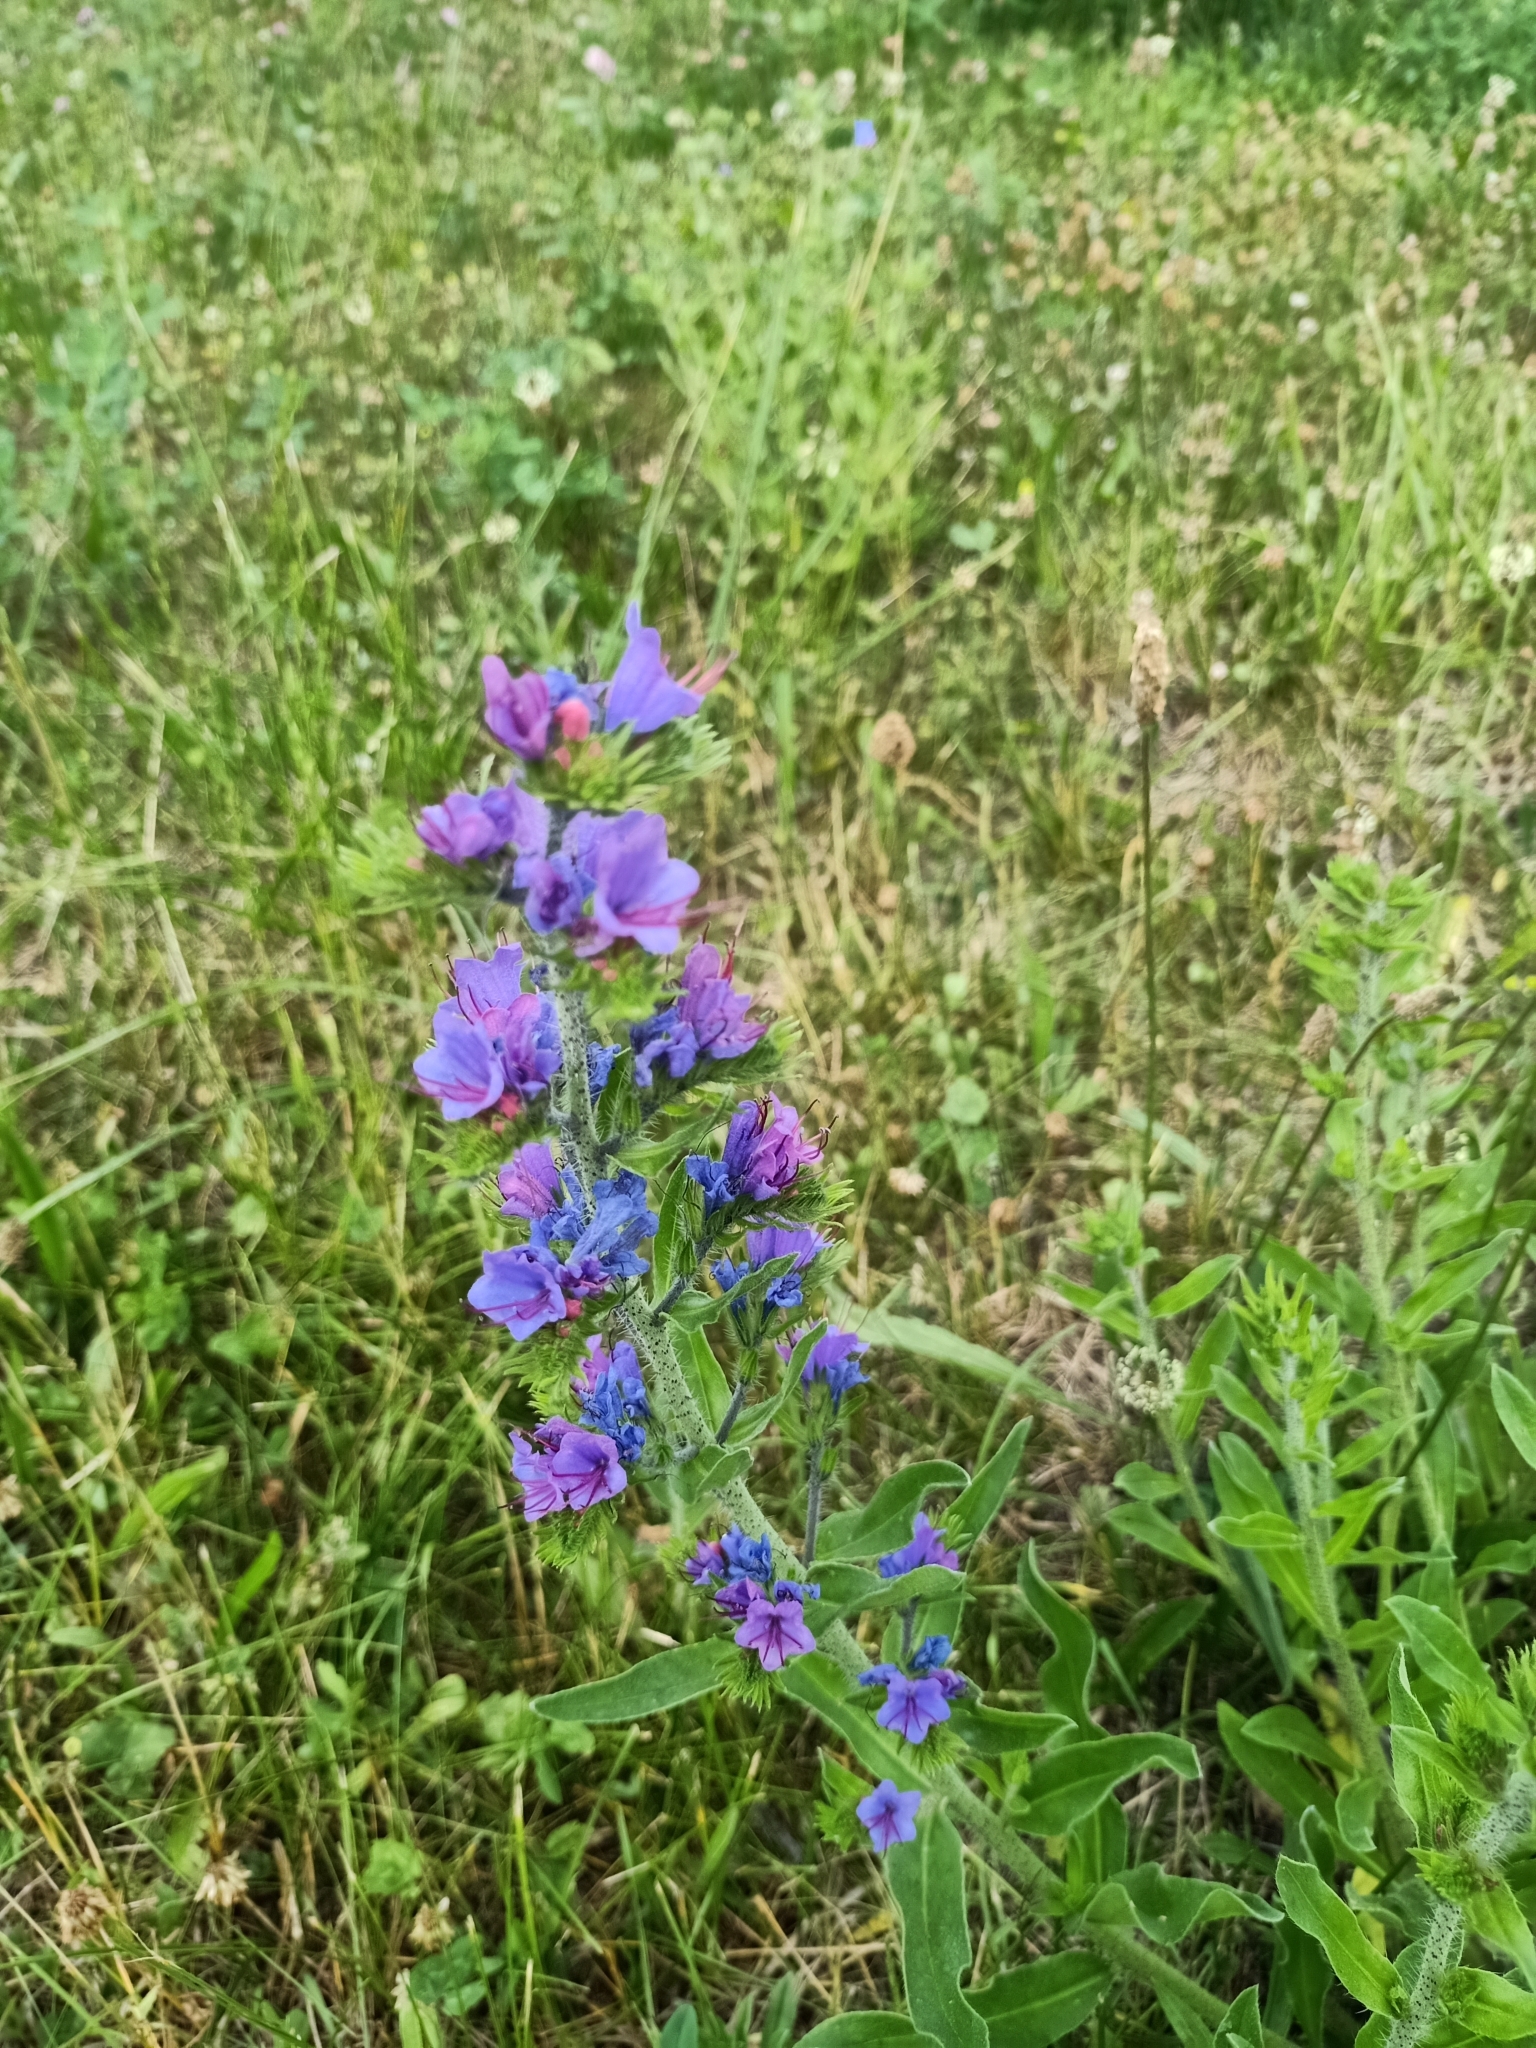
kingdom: Plantae
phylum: Tracheophyta
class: Magnoliopsida
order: Boraginales
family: Boraginaceae
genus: Echium
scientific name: Echium vulgare
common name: Common viper's bugloss
